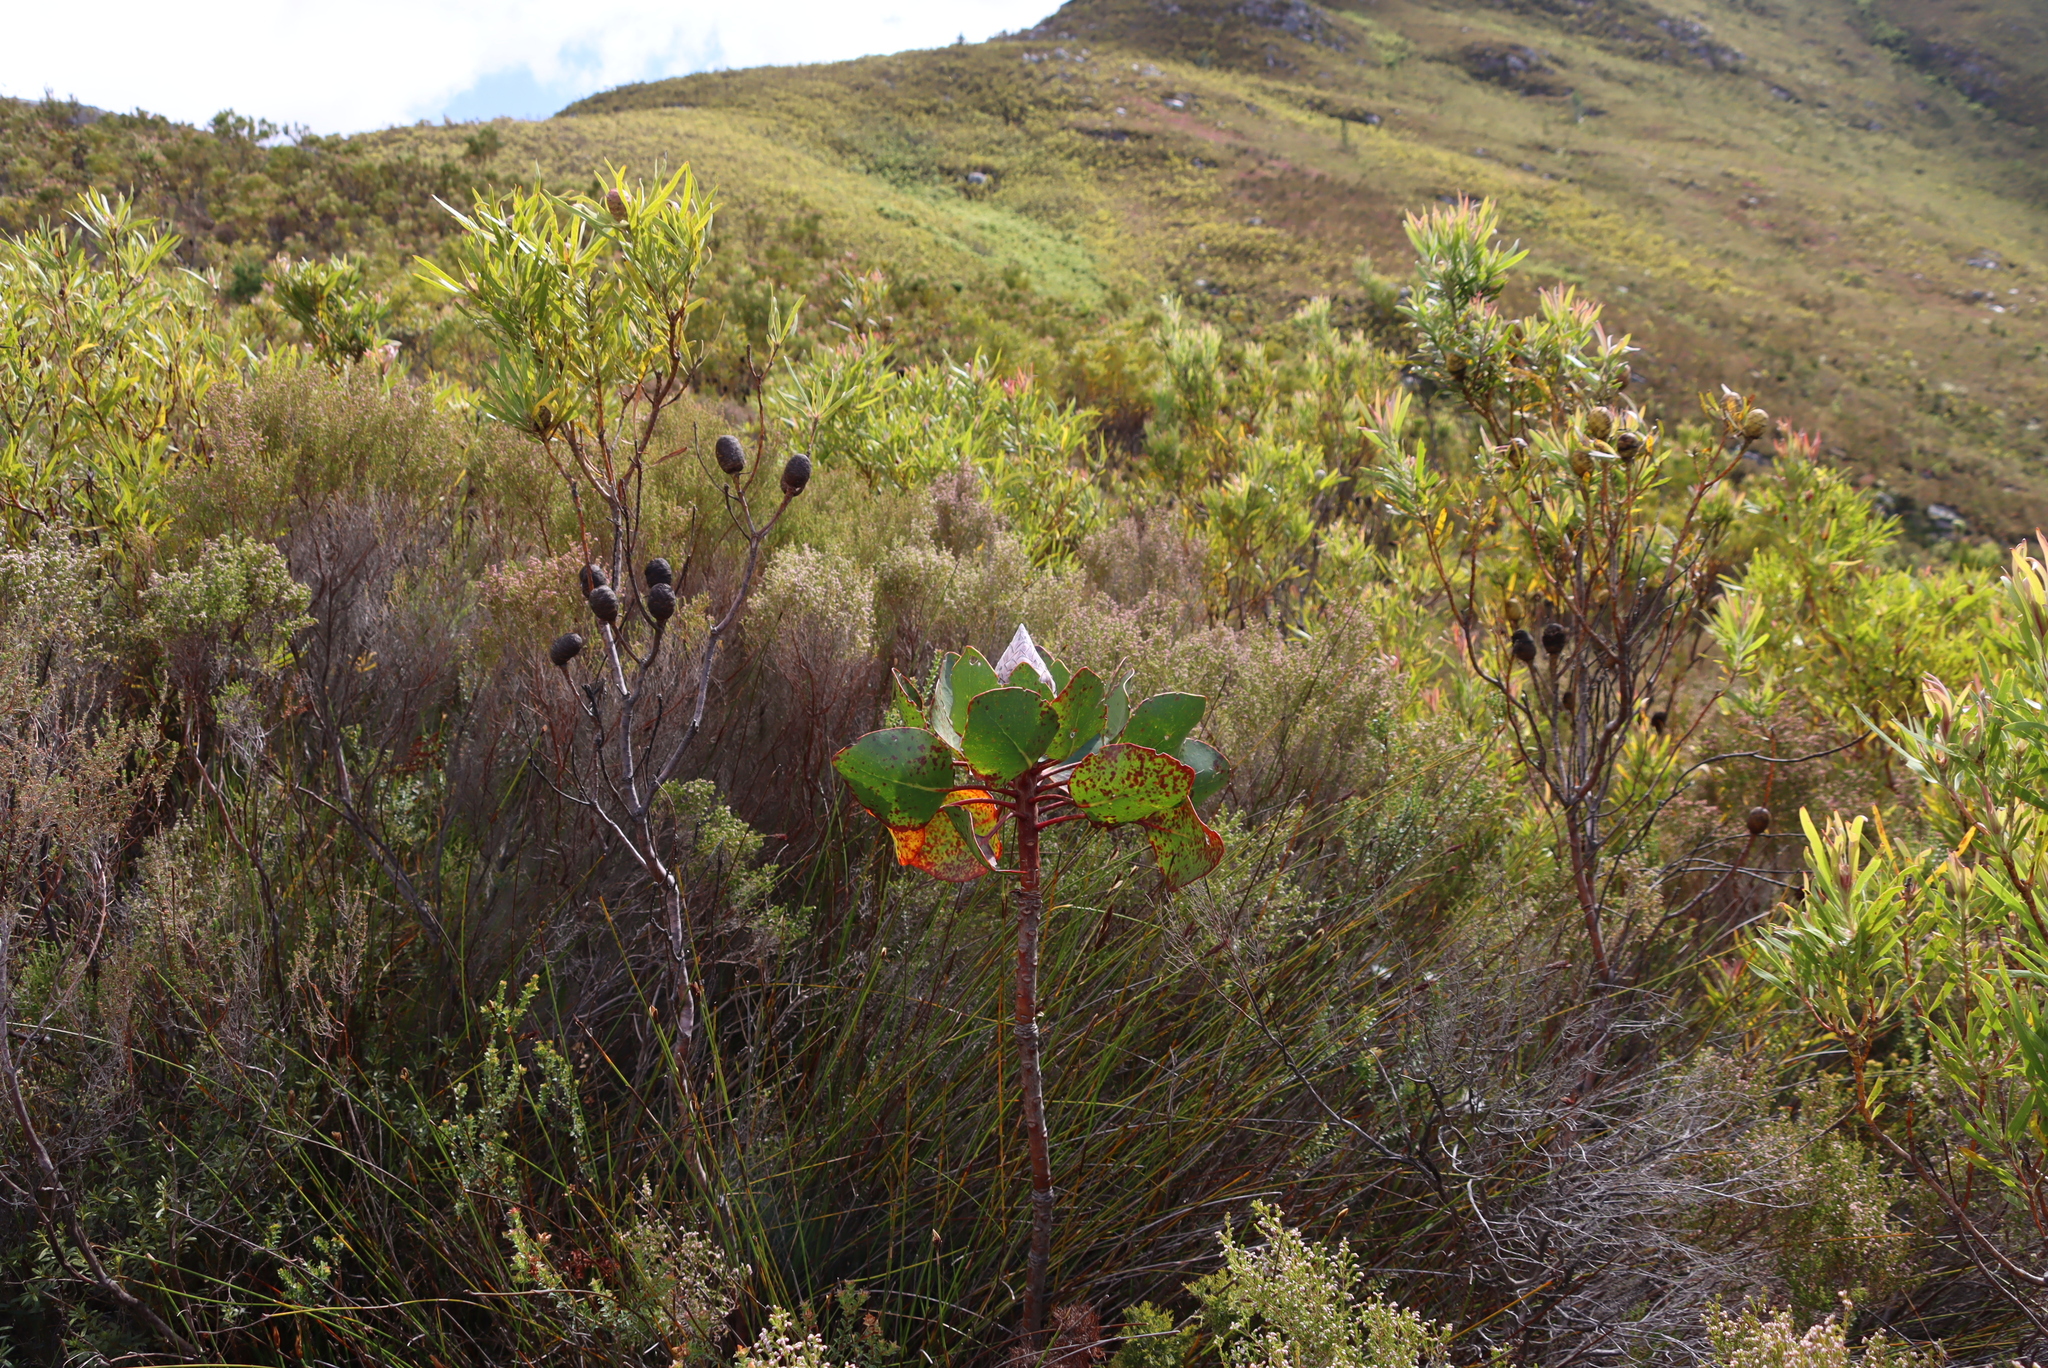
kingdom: Plantae
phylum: Tracheophyta
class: Magnoliopsida
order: Proteales
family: Proteaceae
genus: Protea
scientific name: Protea cynaroides
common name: King protea
